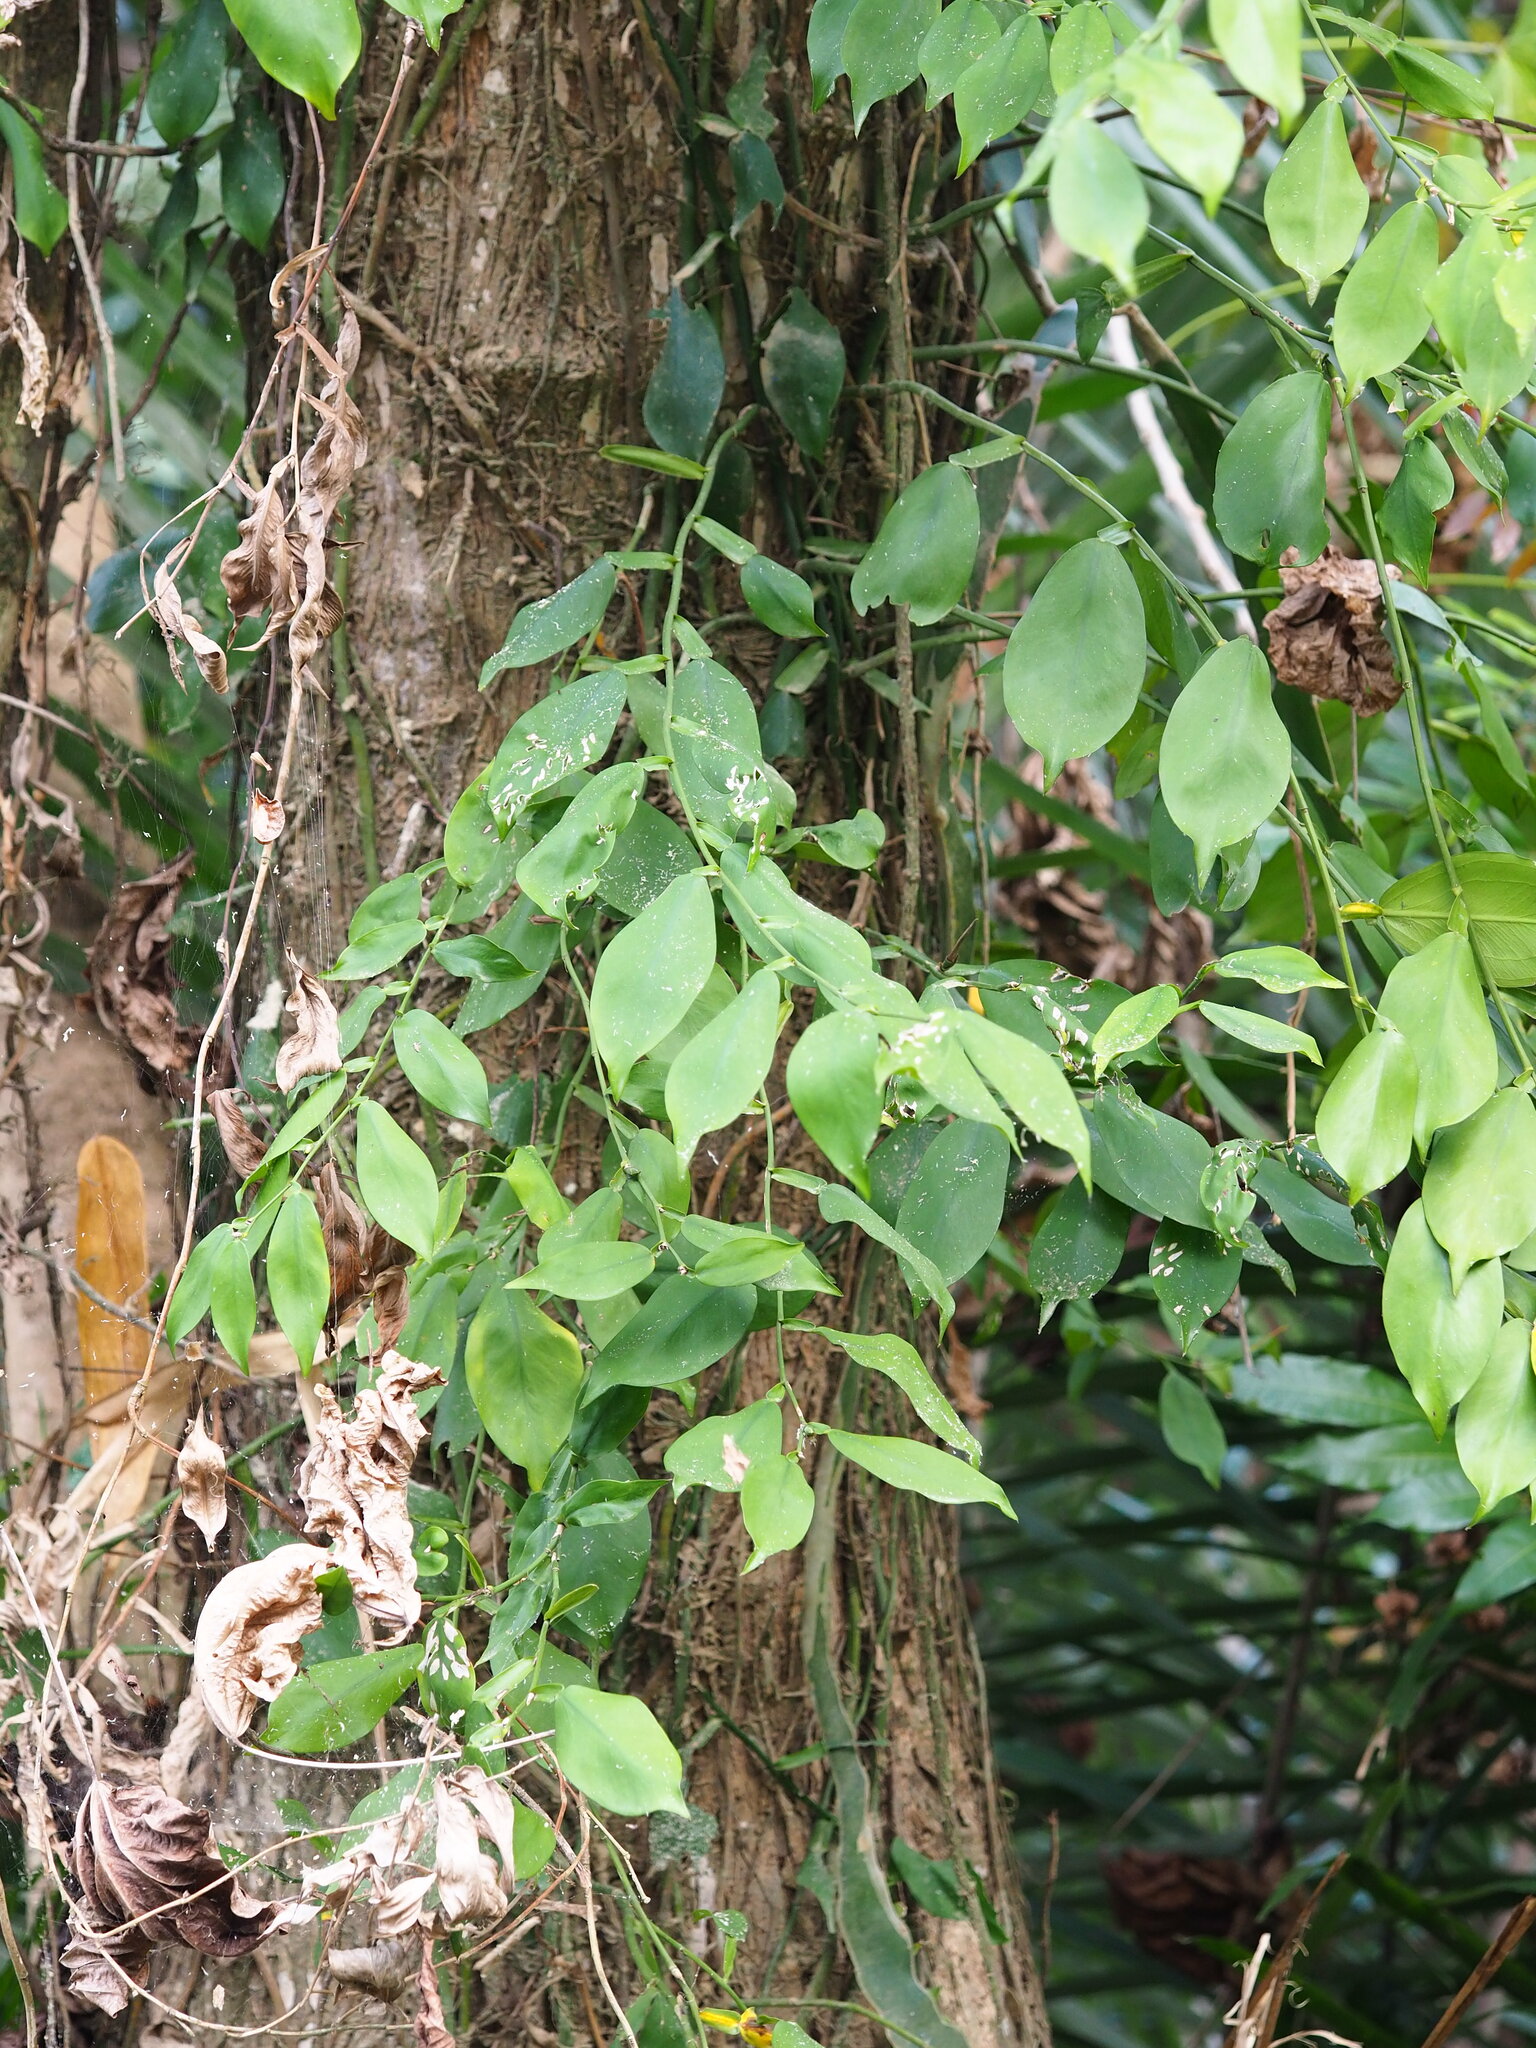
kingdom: Plantae
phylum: Tracheophyta
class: Liliopsida
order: Alismatales
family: Araceae
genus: Pothos
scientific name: Pothos chinensis
